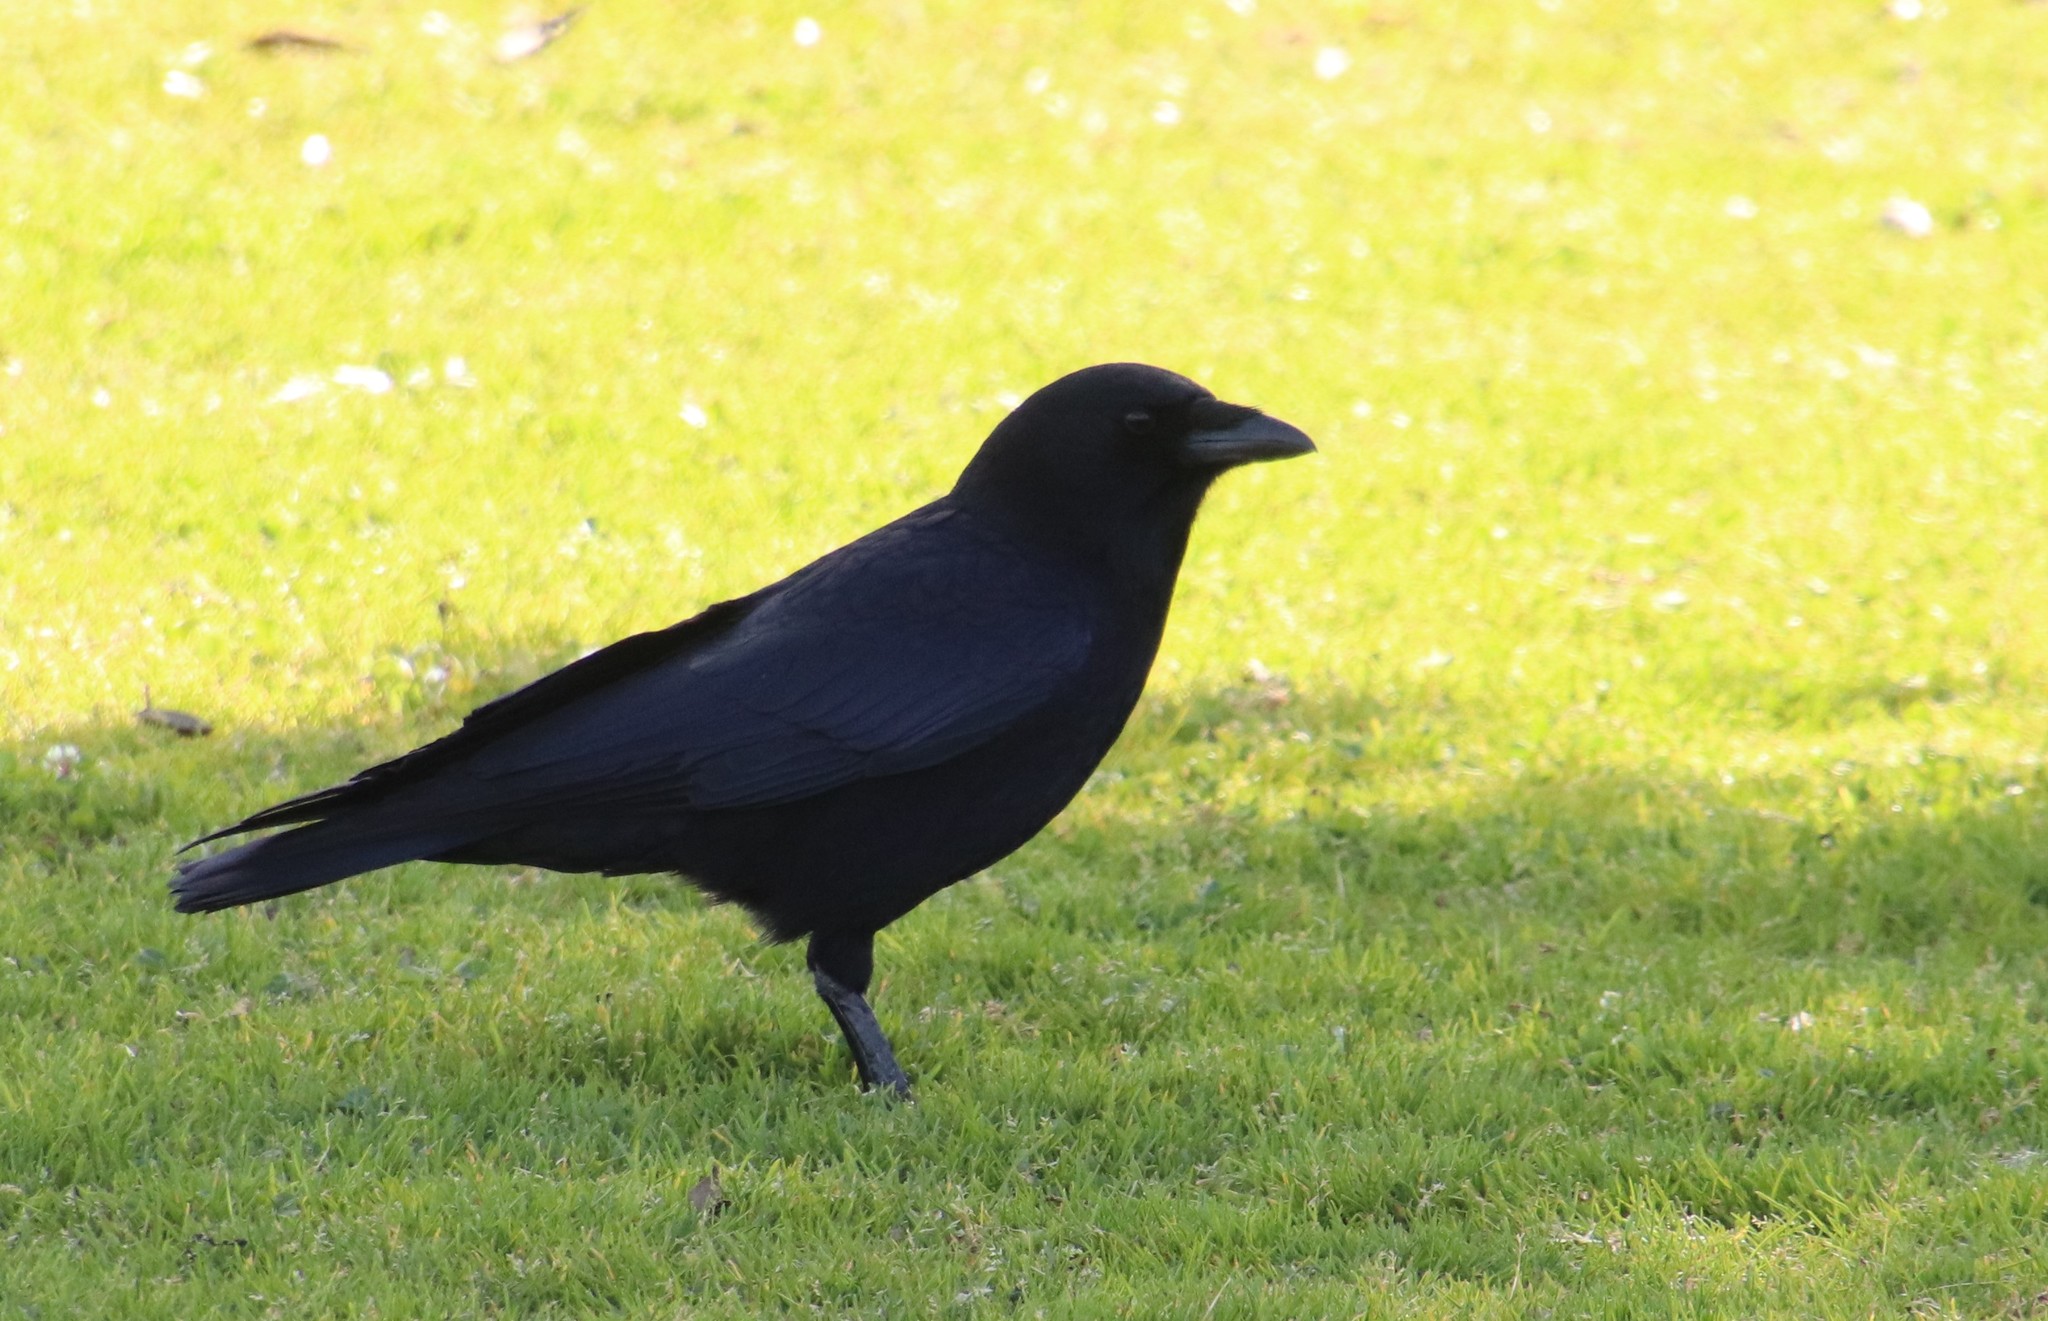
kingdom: Animalia
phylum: Chordata
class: Aves
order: Passeriformes
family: Corvidae
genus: Corvus
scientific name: Corvus brachyrhynchos
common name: American crow
